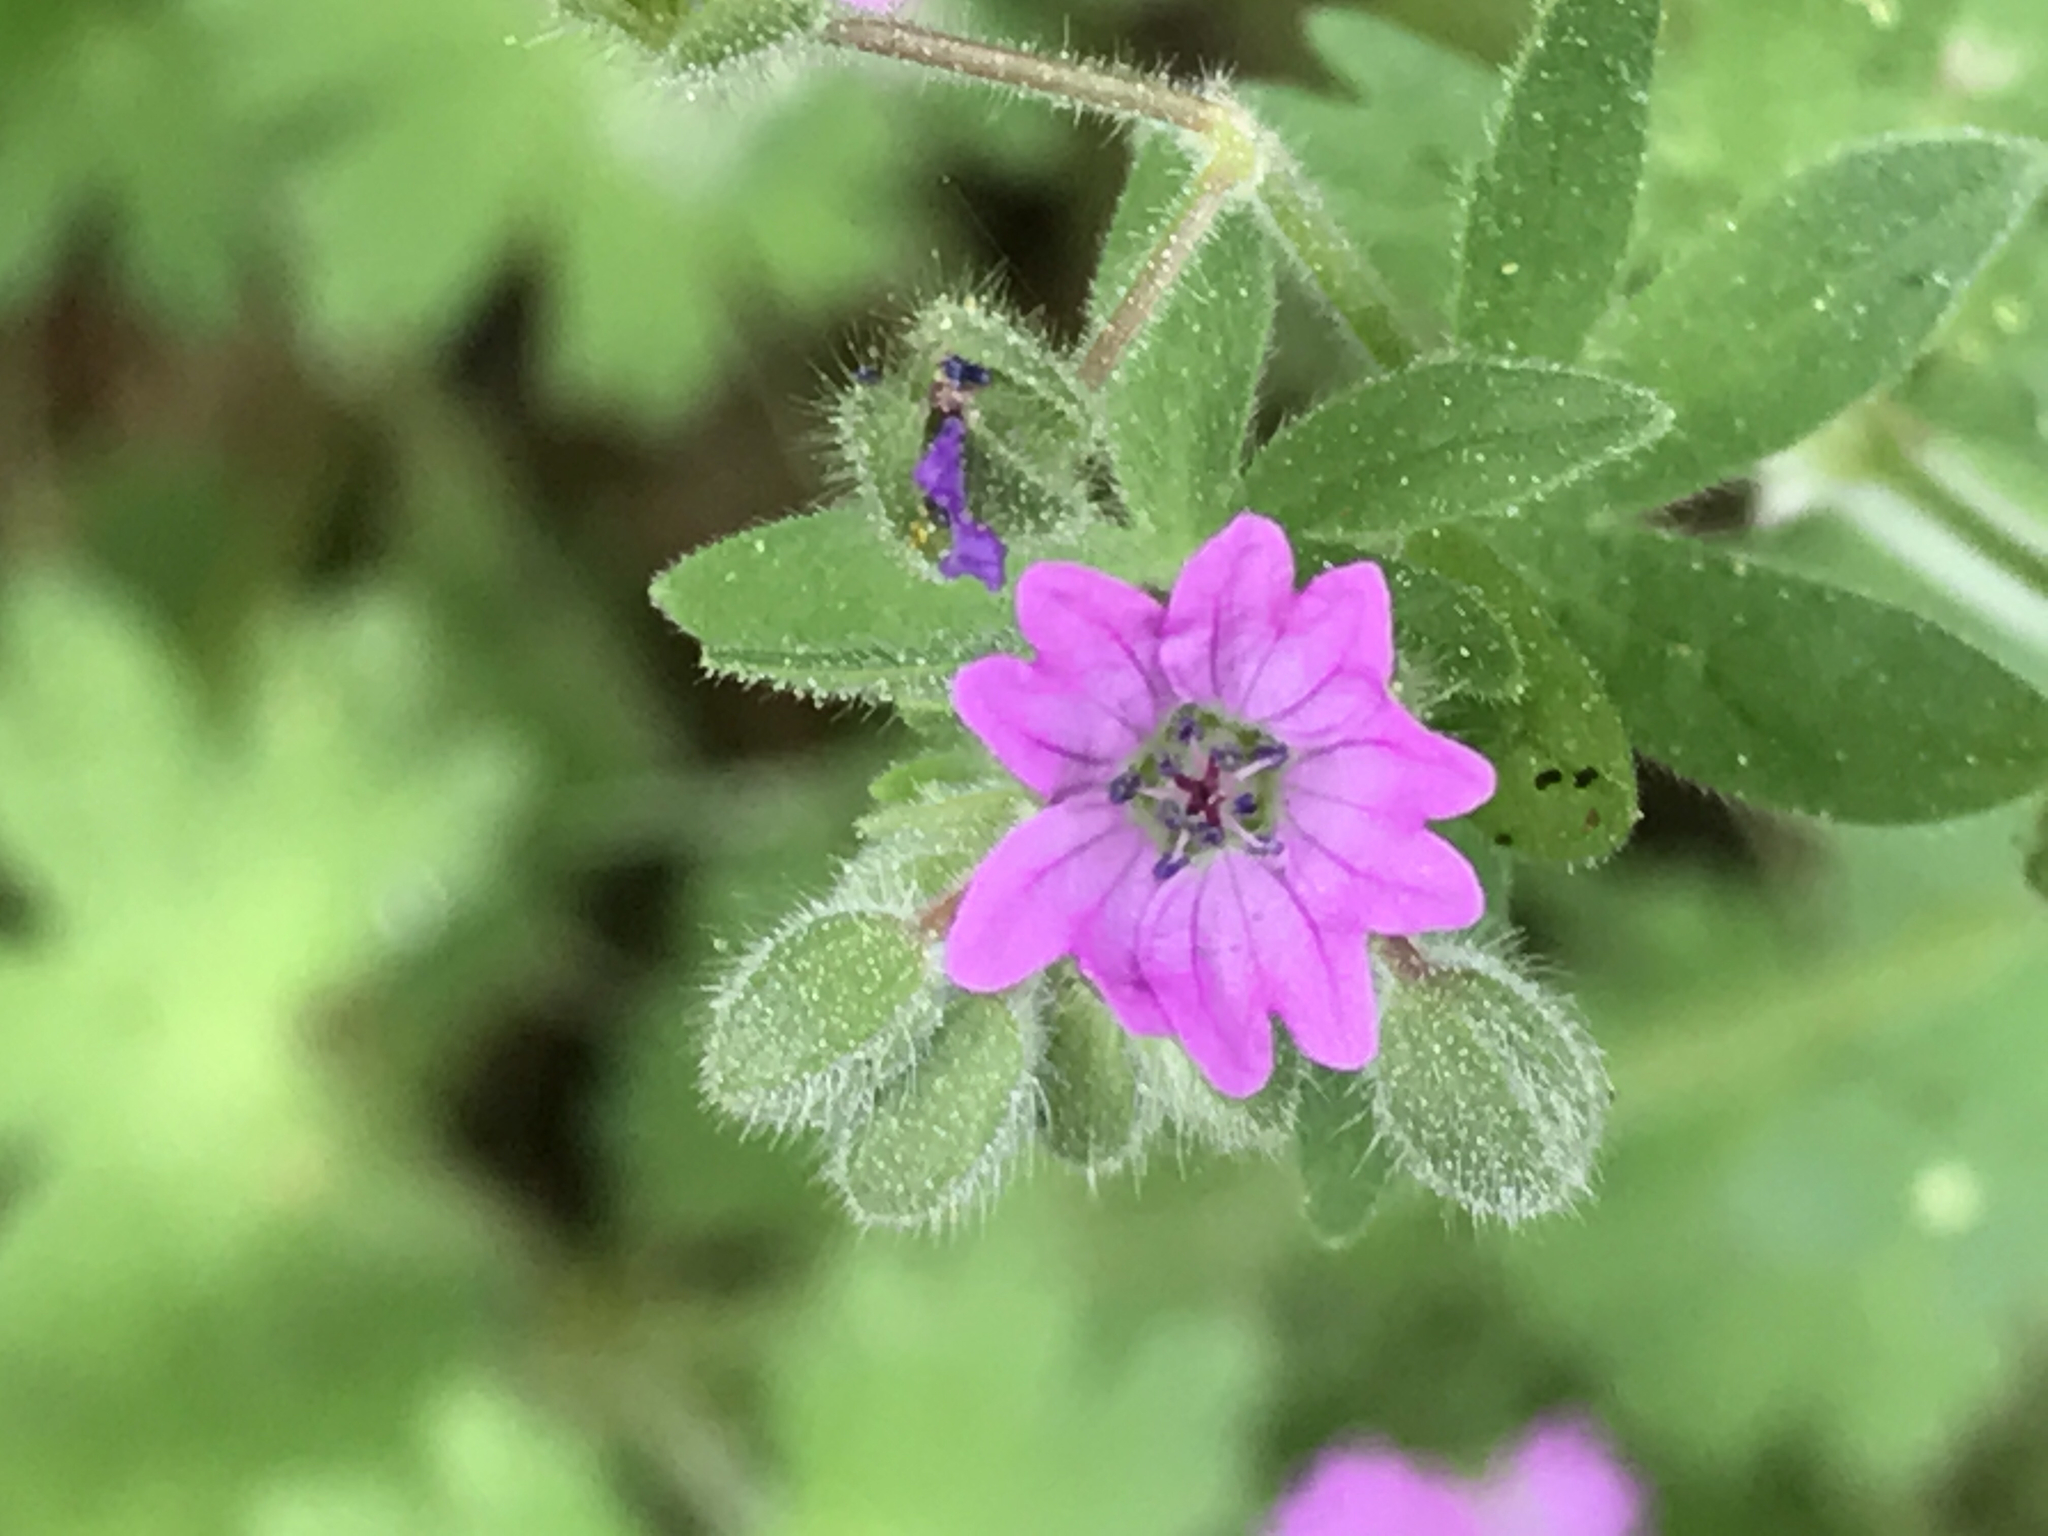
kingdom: Plantae
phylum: Tracheophyta
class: Magnoliopsida
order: Geraniales
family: Geraniaceae
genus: Geranium
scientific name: Geranium molle
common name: Dove's-foot crane's-bill
